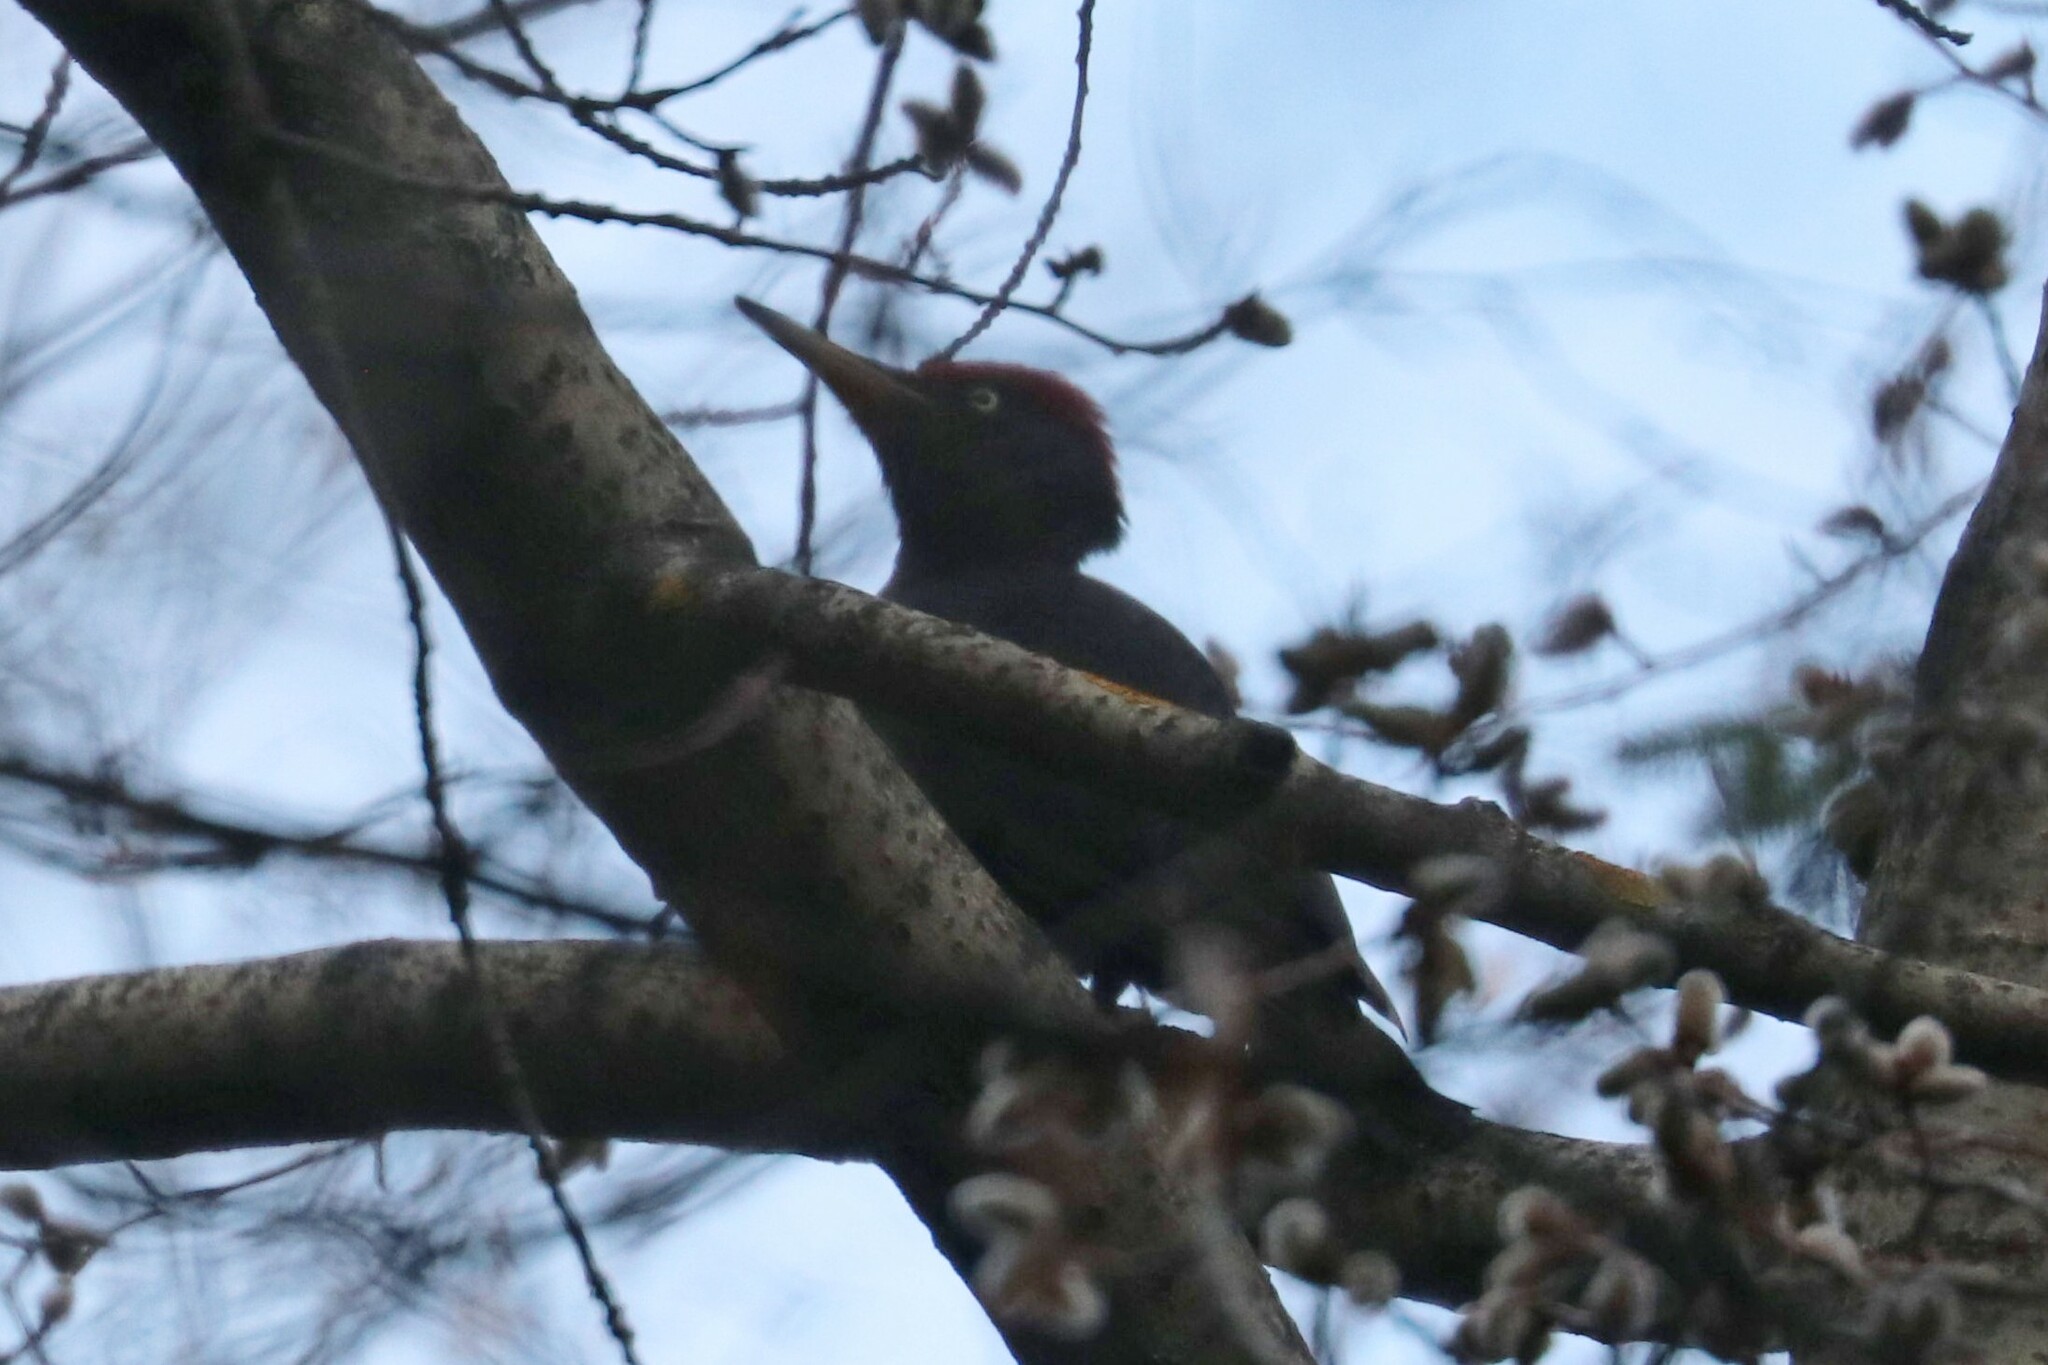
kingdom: Animalia
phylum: Chordata
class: Aves
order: Piciformes
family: Picidae
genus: Dryocopus
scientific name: Dryocopus martius
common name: Black woodpecker
